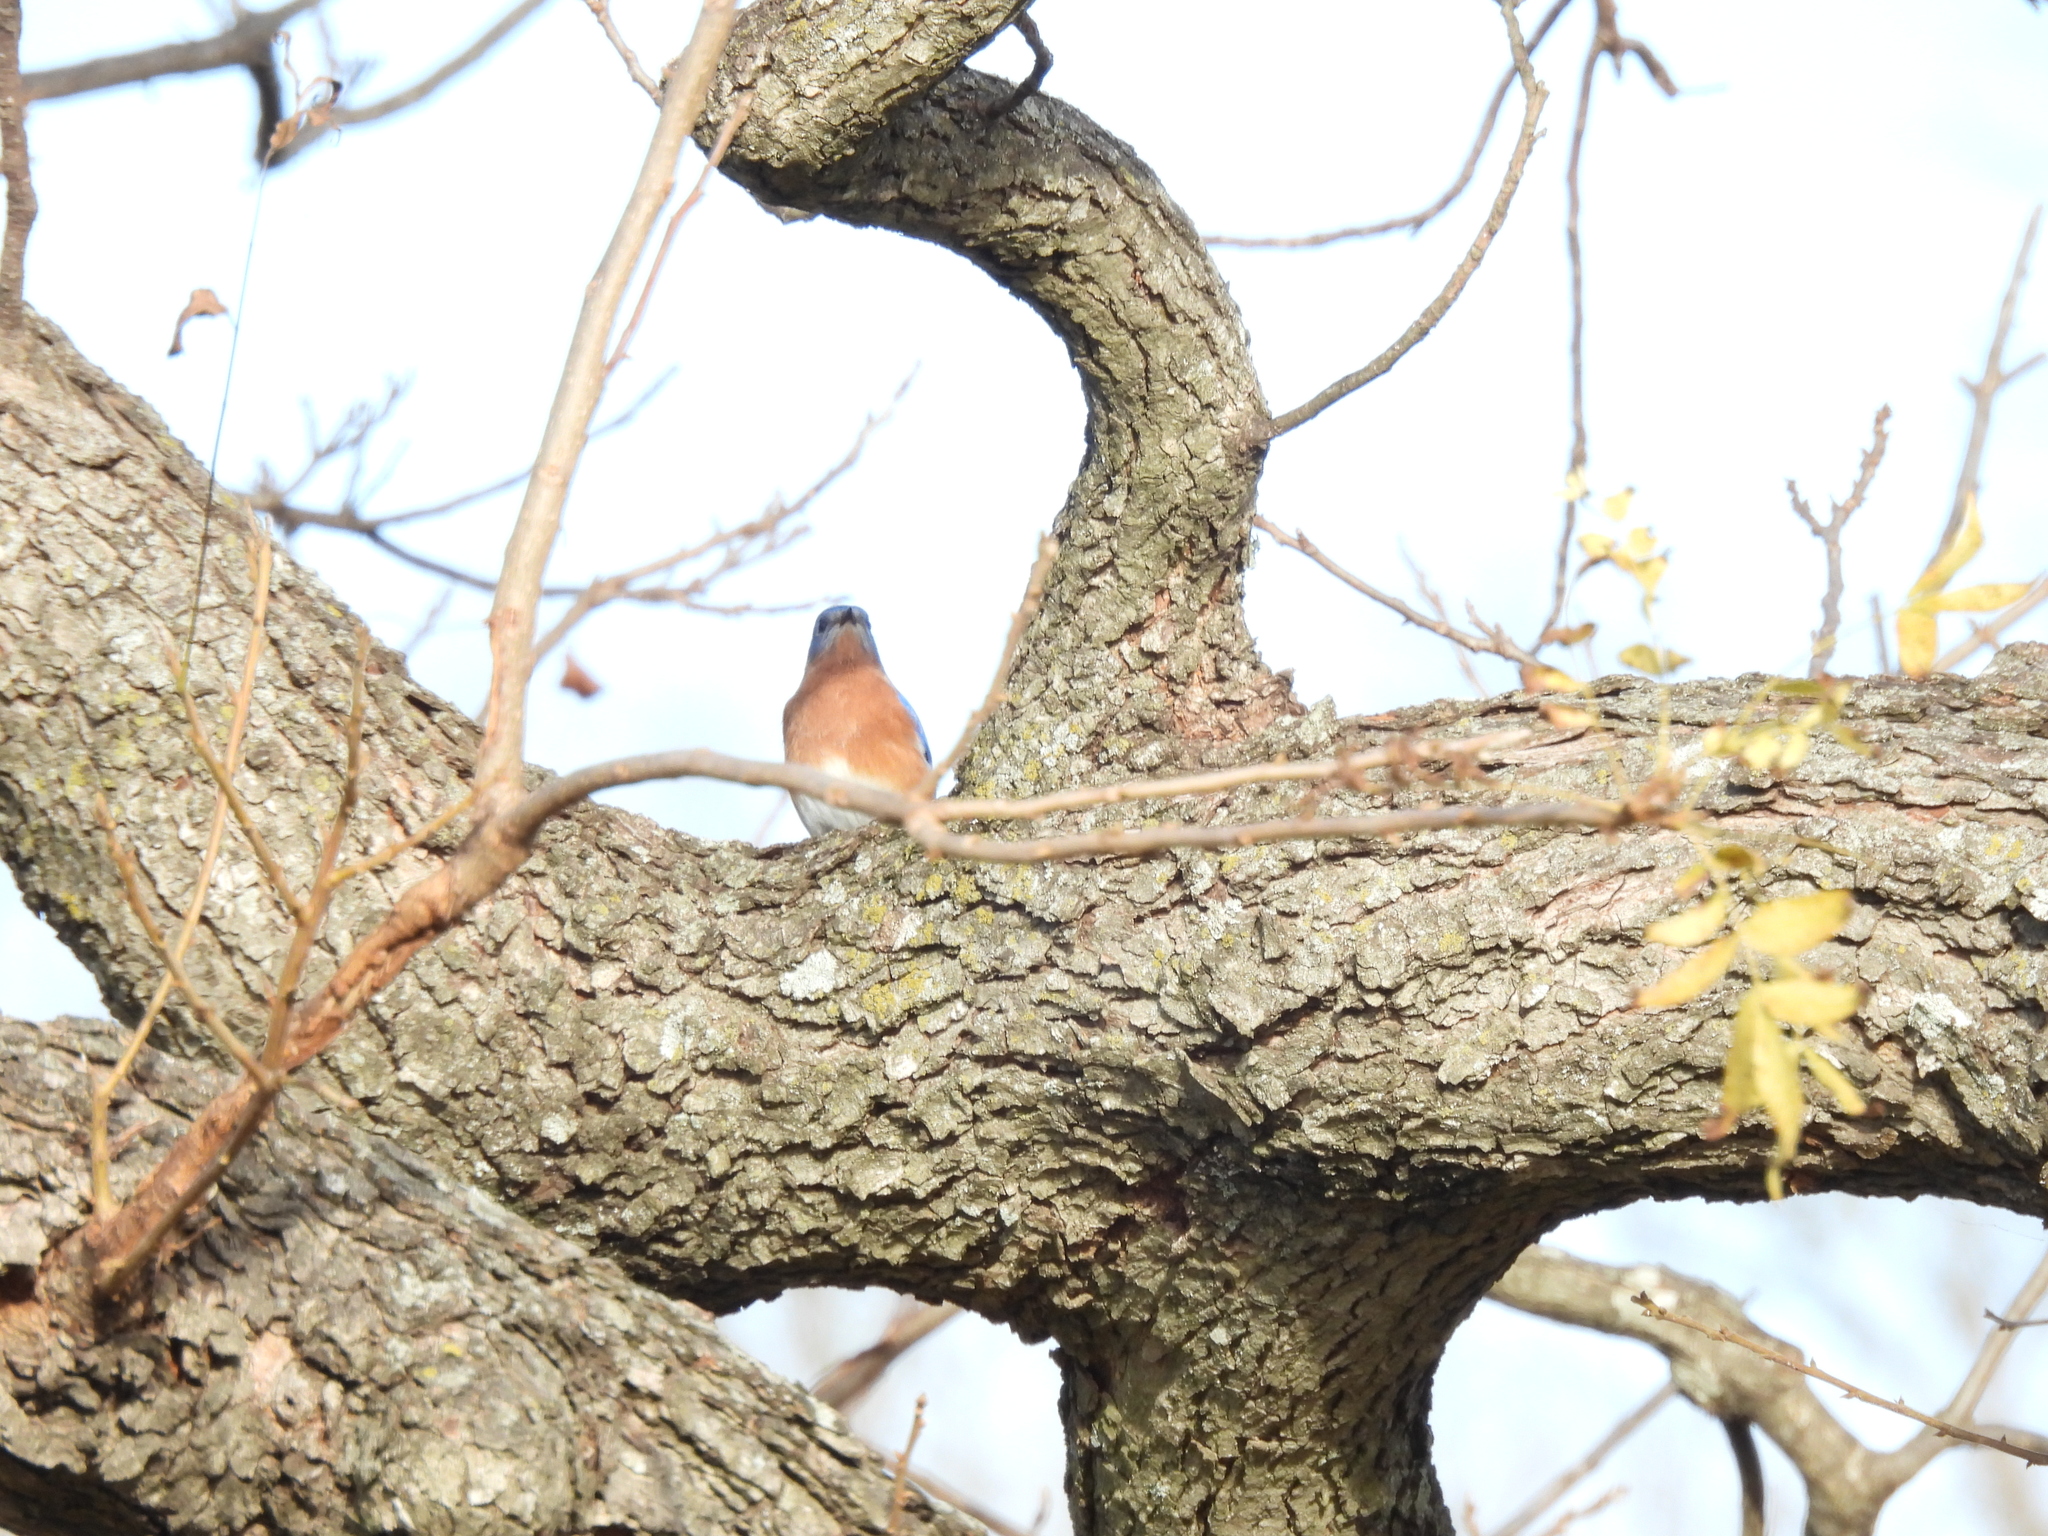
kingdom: Animalia
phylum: Chordata
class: Aves
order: Passeriformes
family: Turdidae
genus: Sialia
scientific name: Sialia sialis
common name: Eastern bluebird
